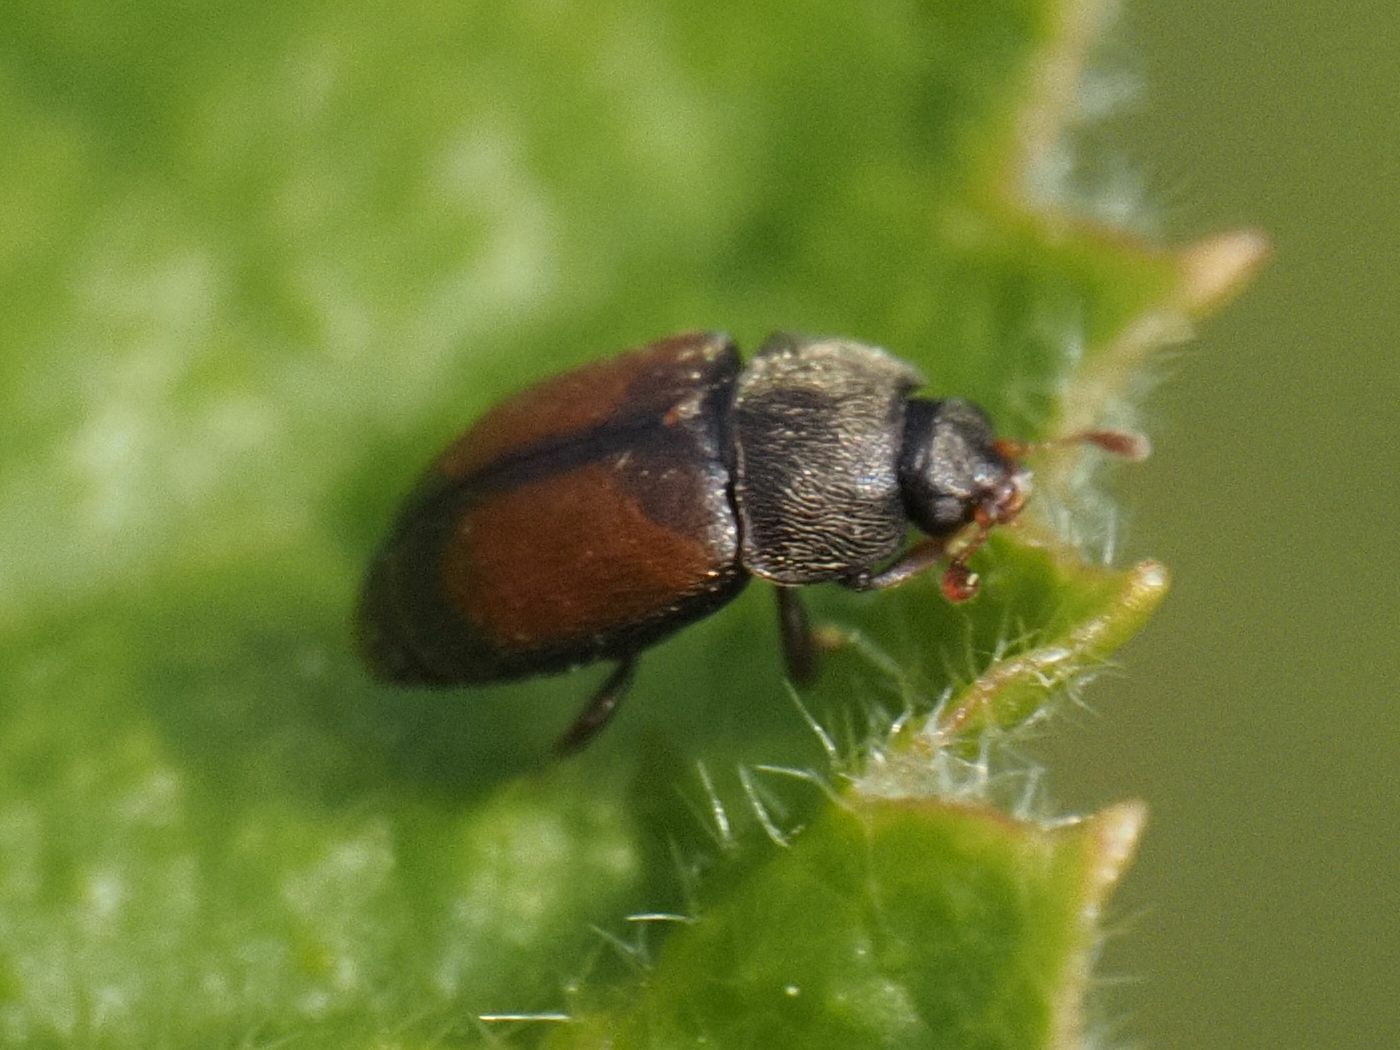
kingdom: Animalia
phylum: Arthropoda
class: Insecta
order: Coleoptera
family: Nitidulidae
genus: Epuraea
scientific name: Epuraea melanocephala
